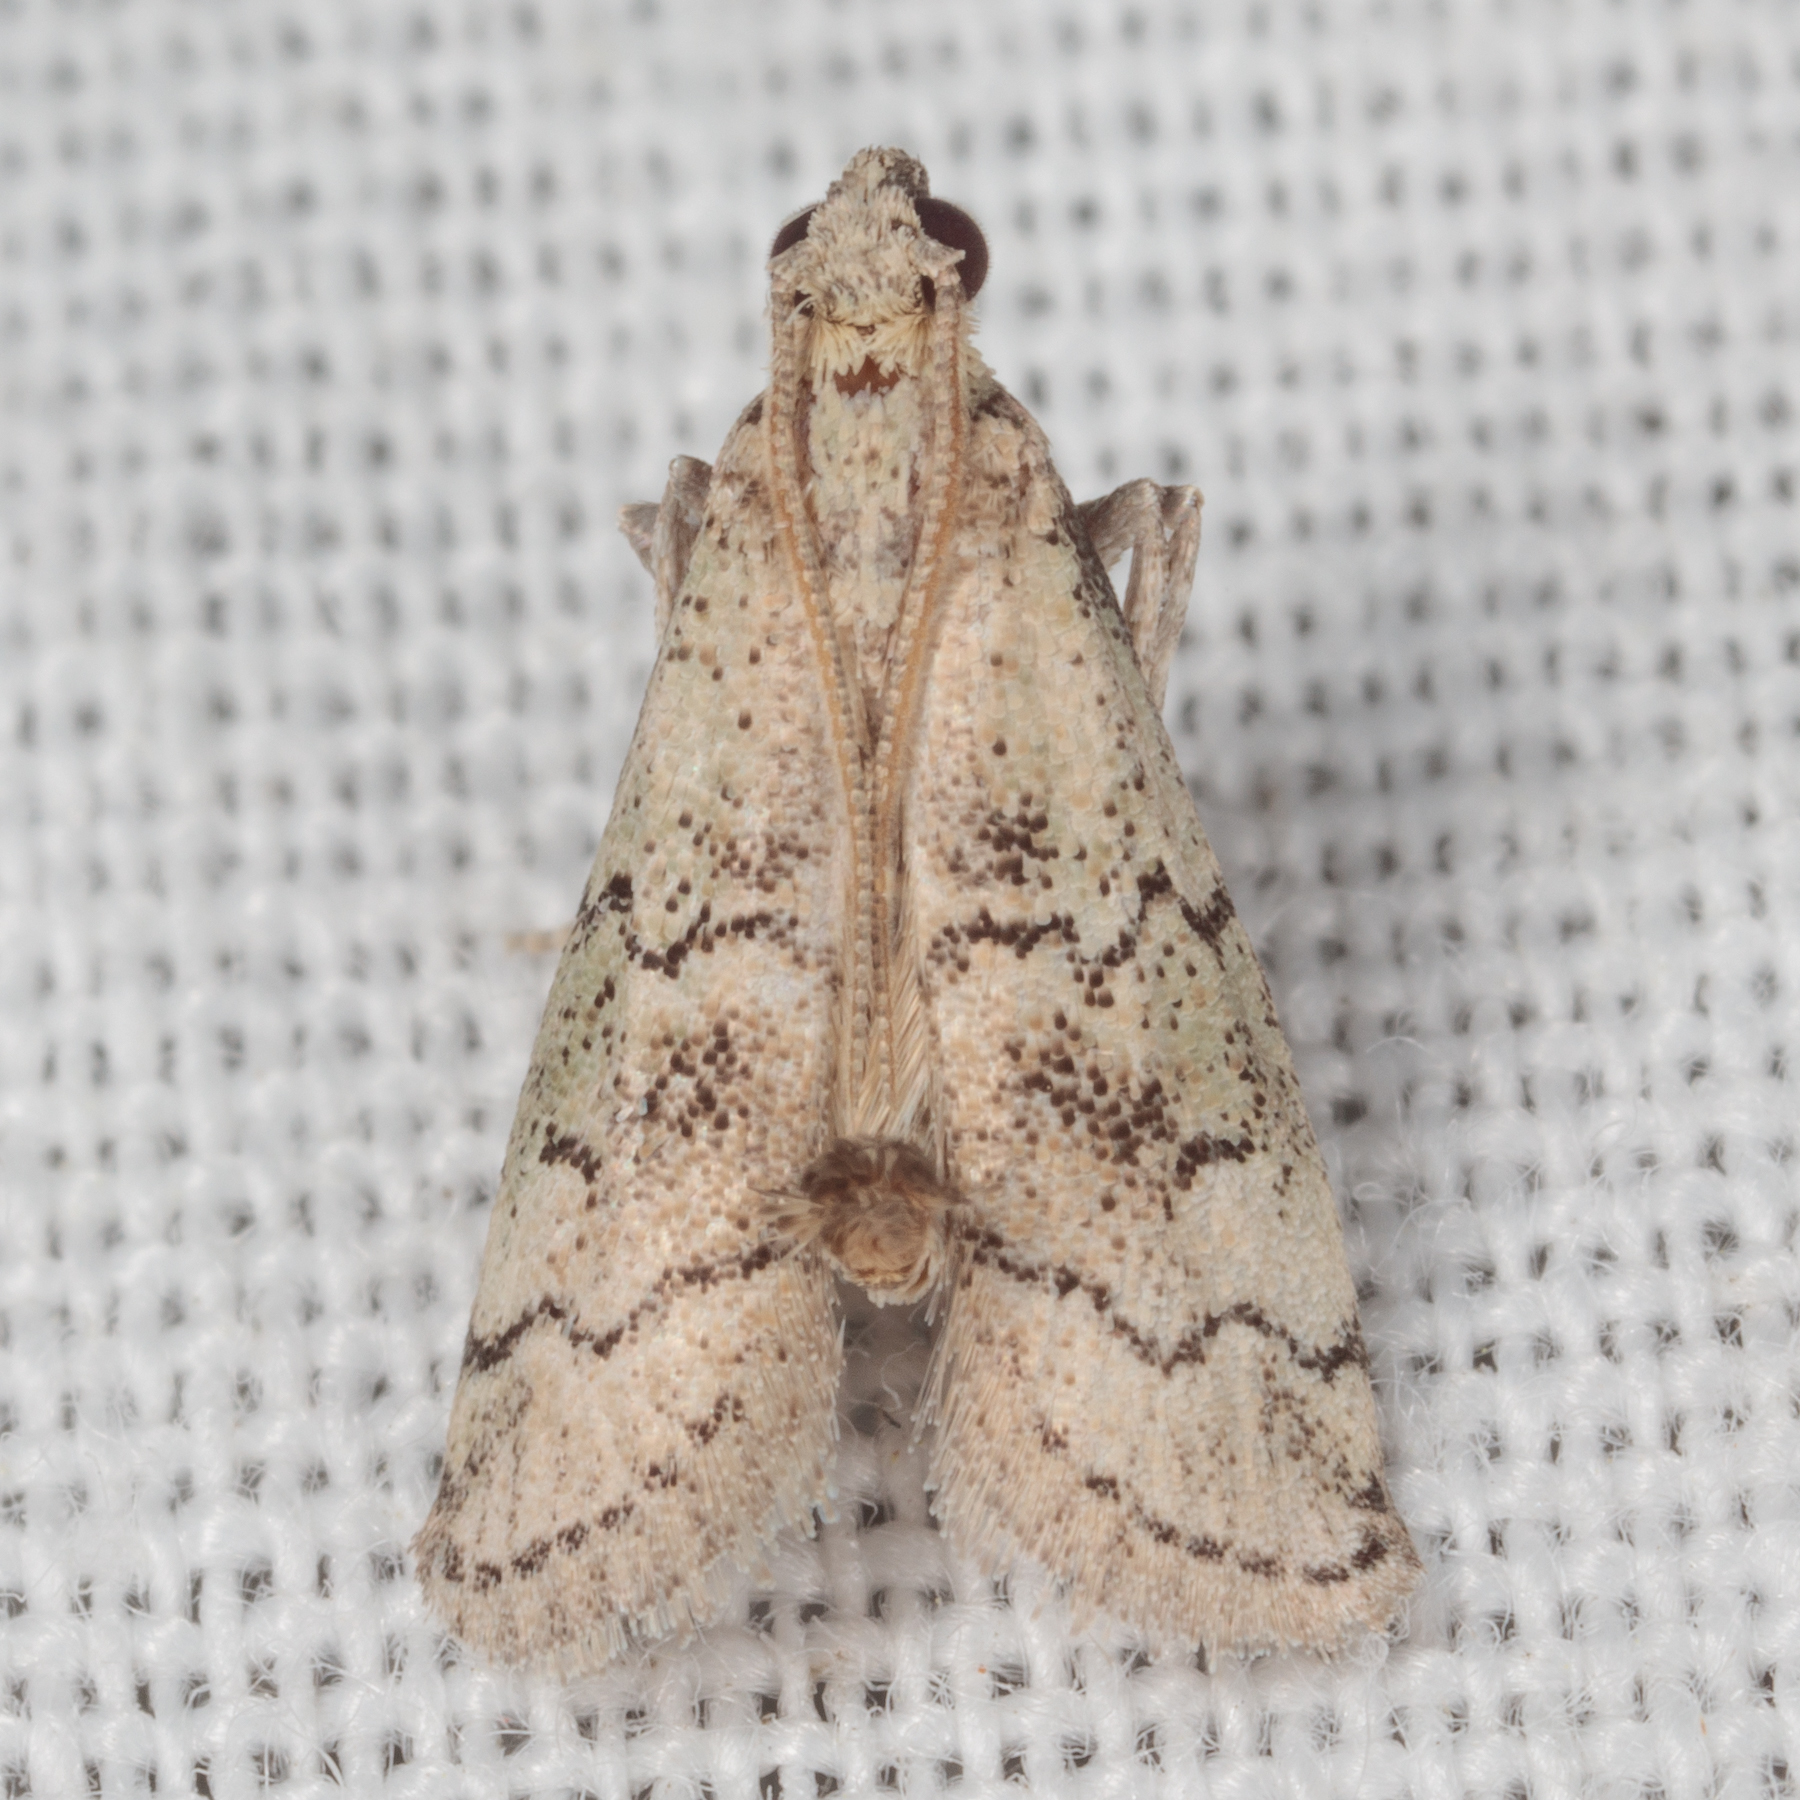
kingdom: Animalia
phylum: Arthropoda
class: Insecta
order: Lepidoptera
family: Pyralidae
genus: Cacotherapia
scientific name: Cacotherapia flexilinealis
